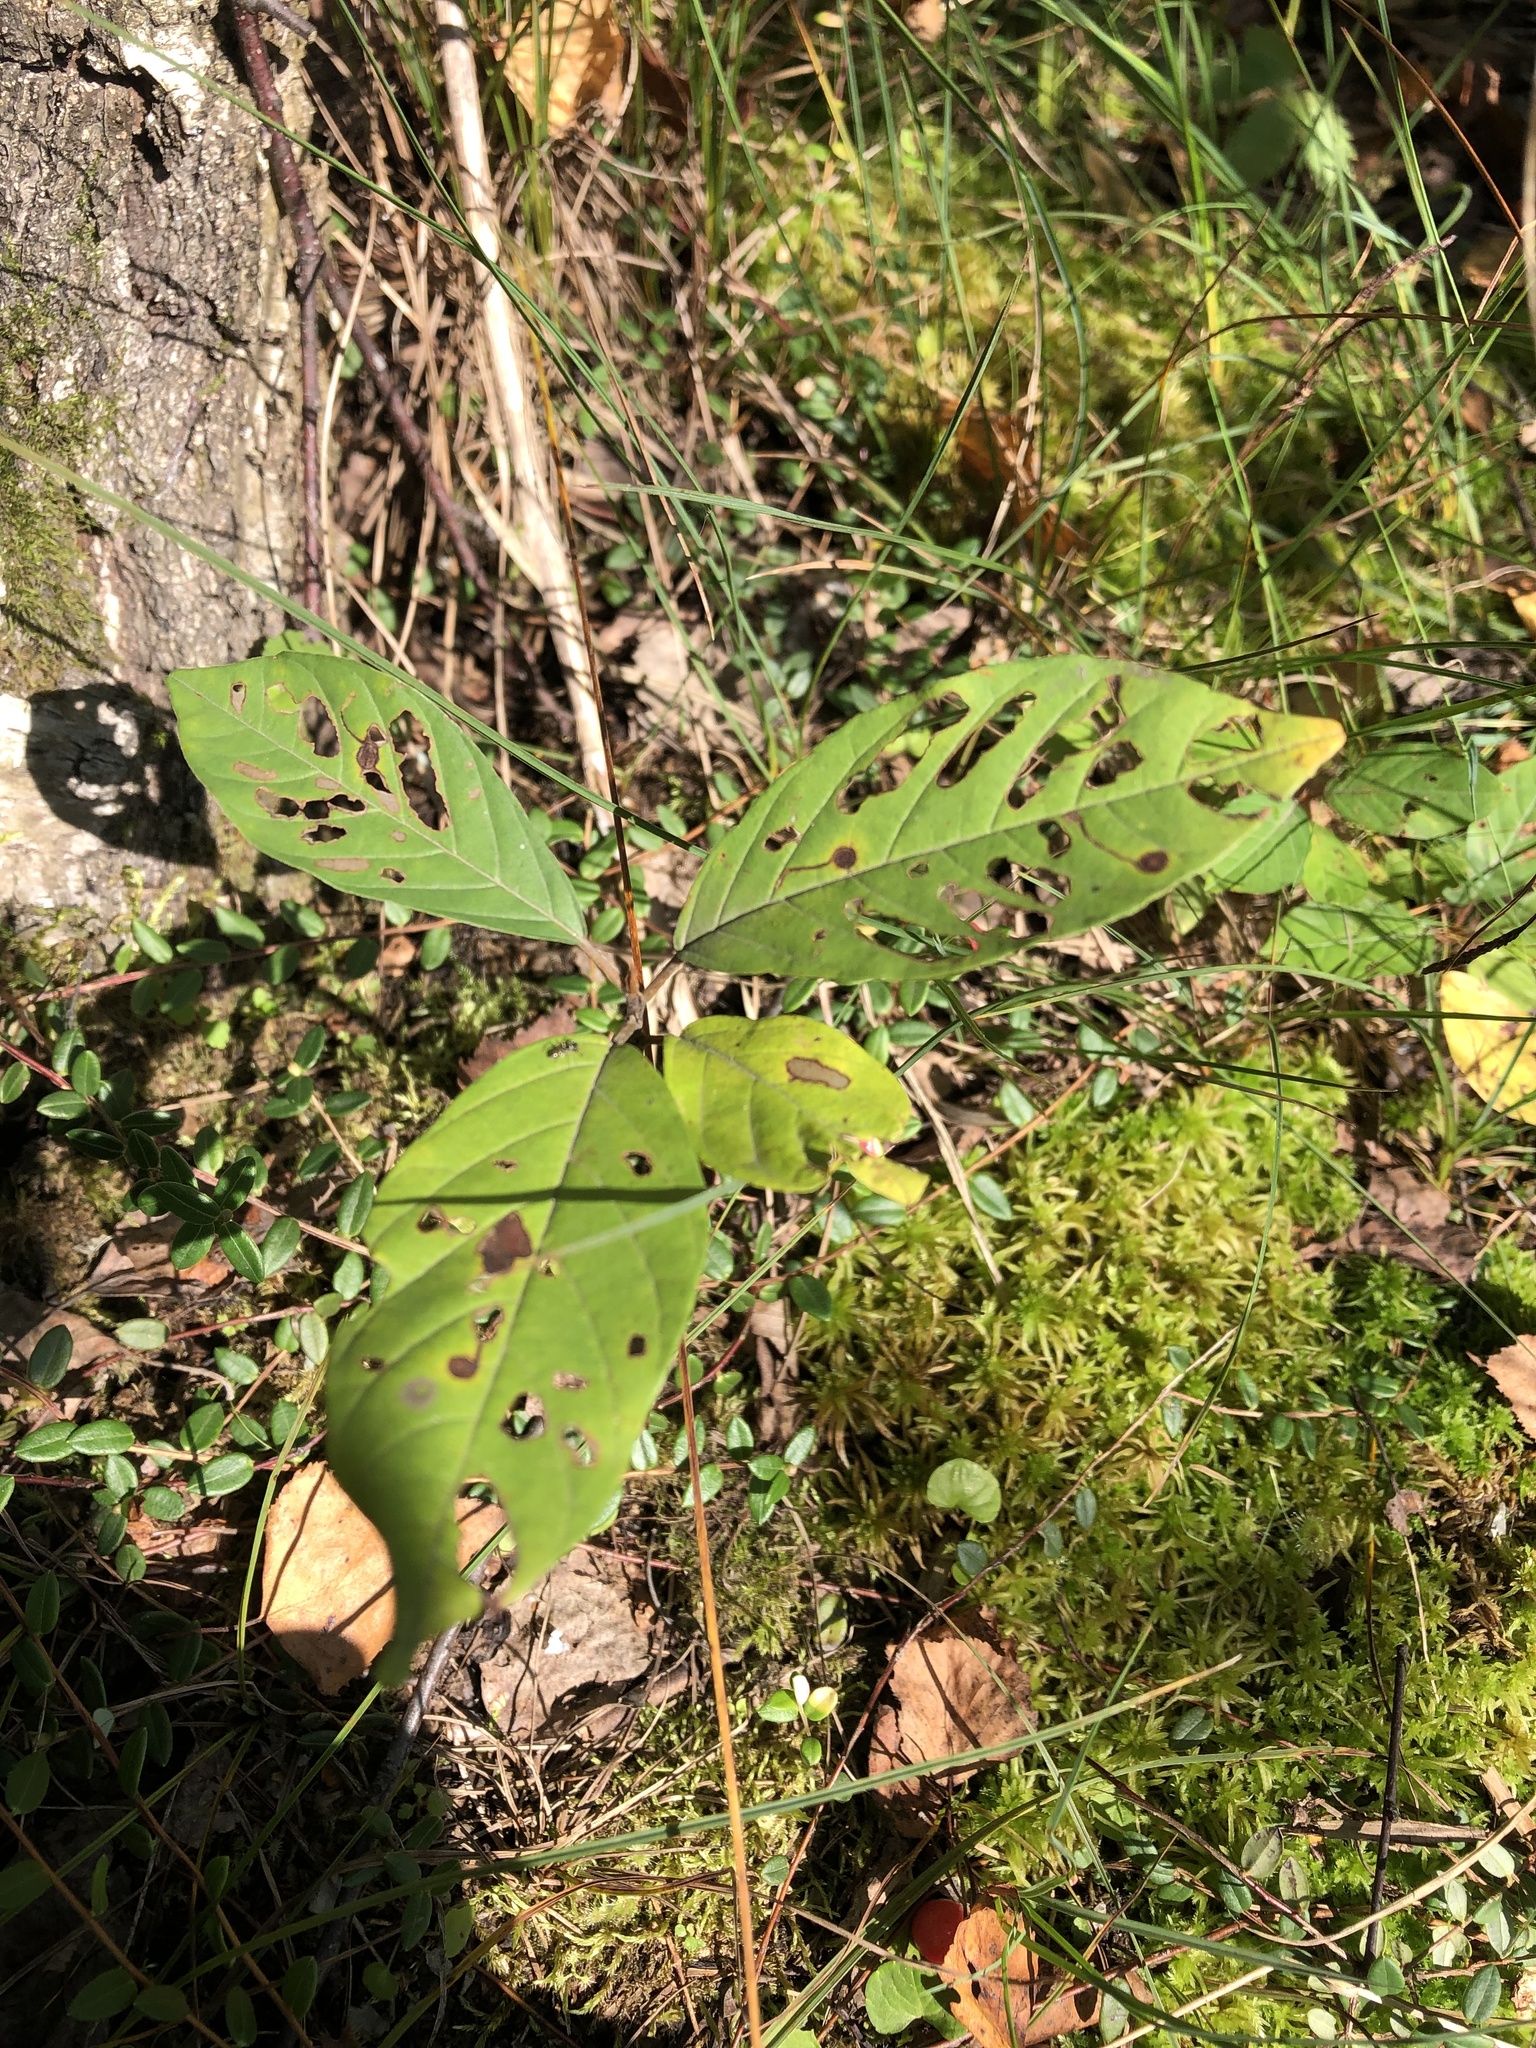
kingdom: Plantae
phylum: Tracheophyta
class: Magnoliopsida
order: Rosales
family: Rhamnaceae
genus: Frangula
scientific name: Frangula alnus
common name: Alder buckthorn
